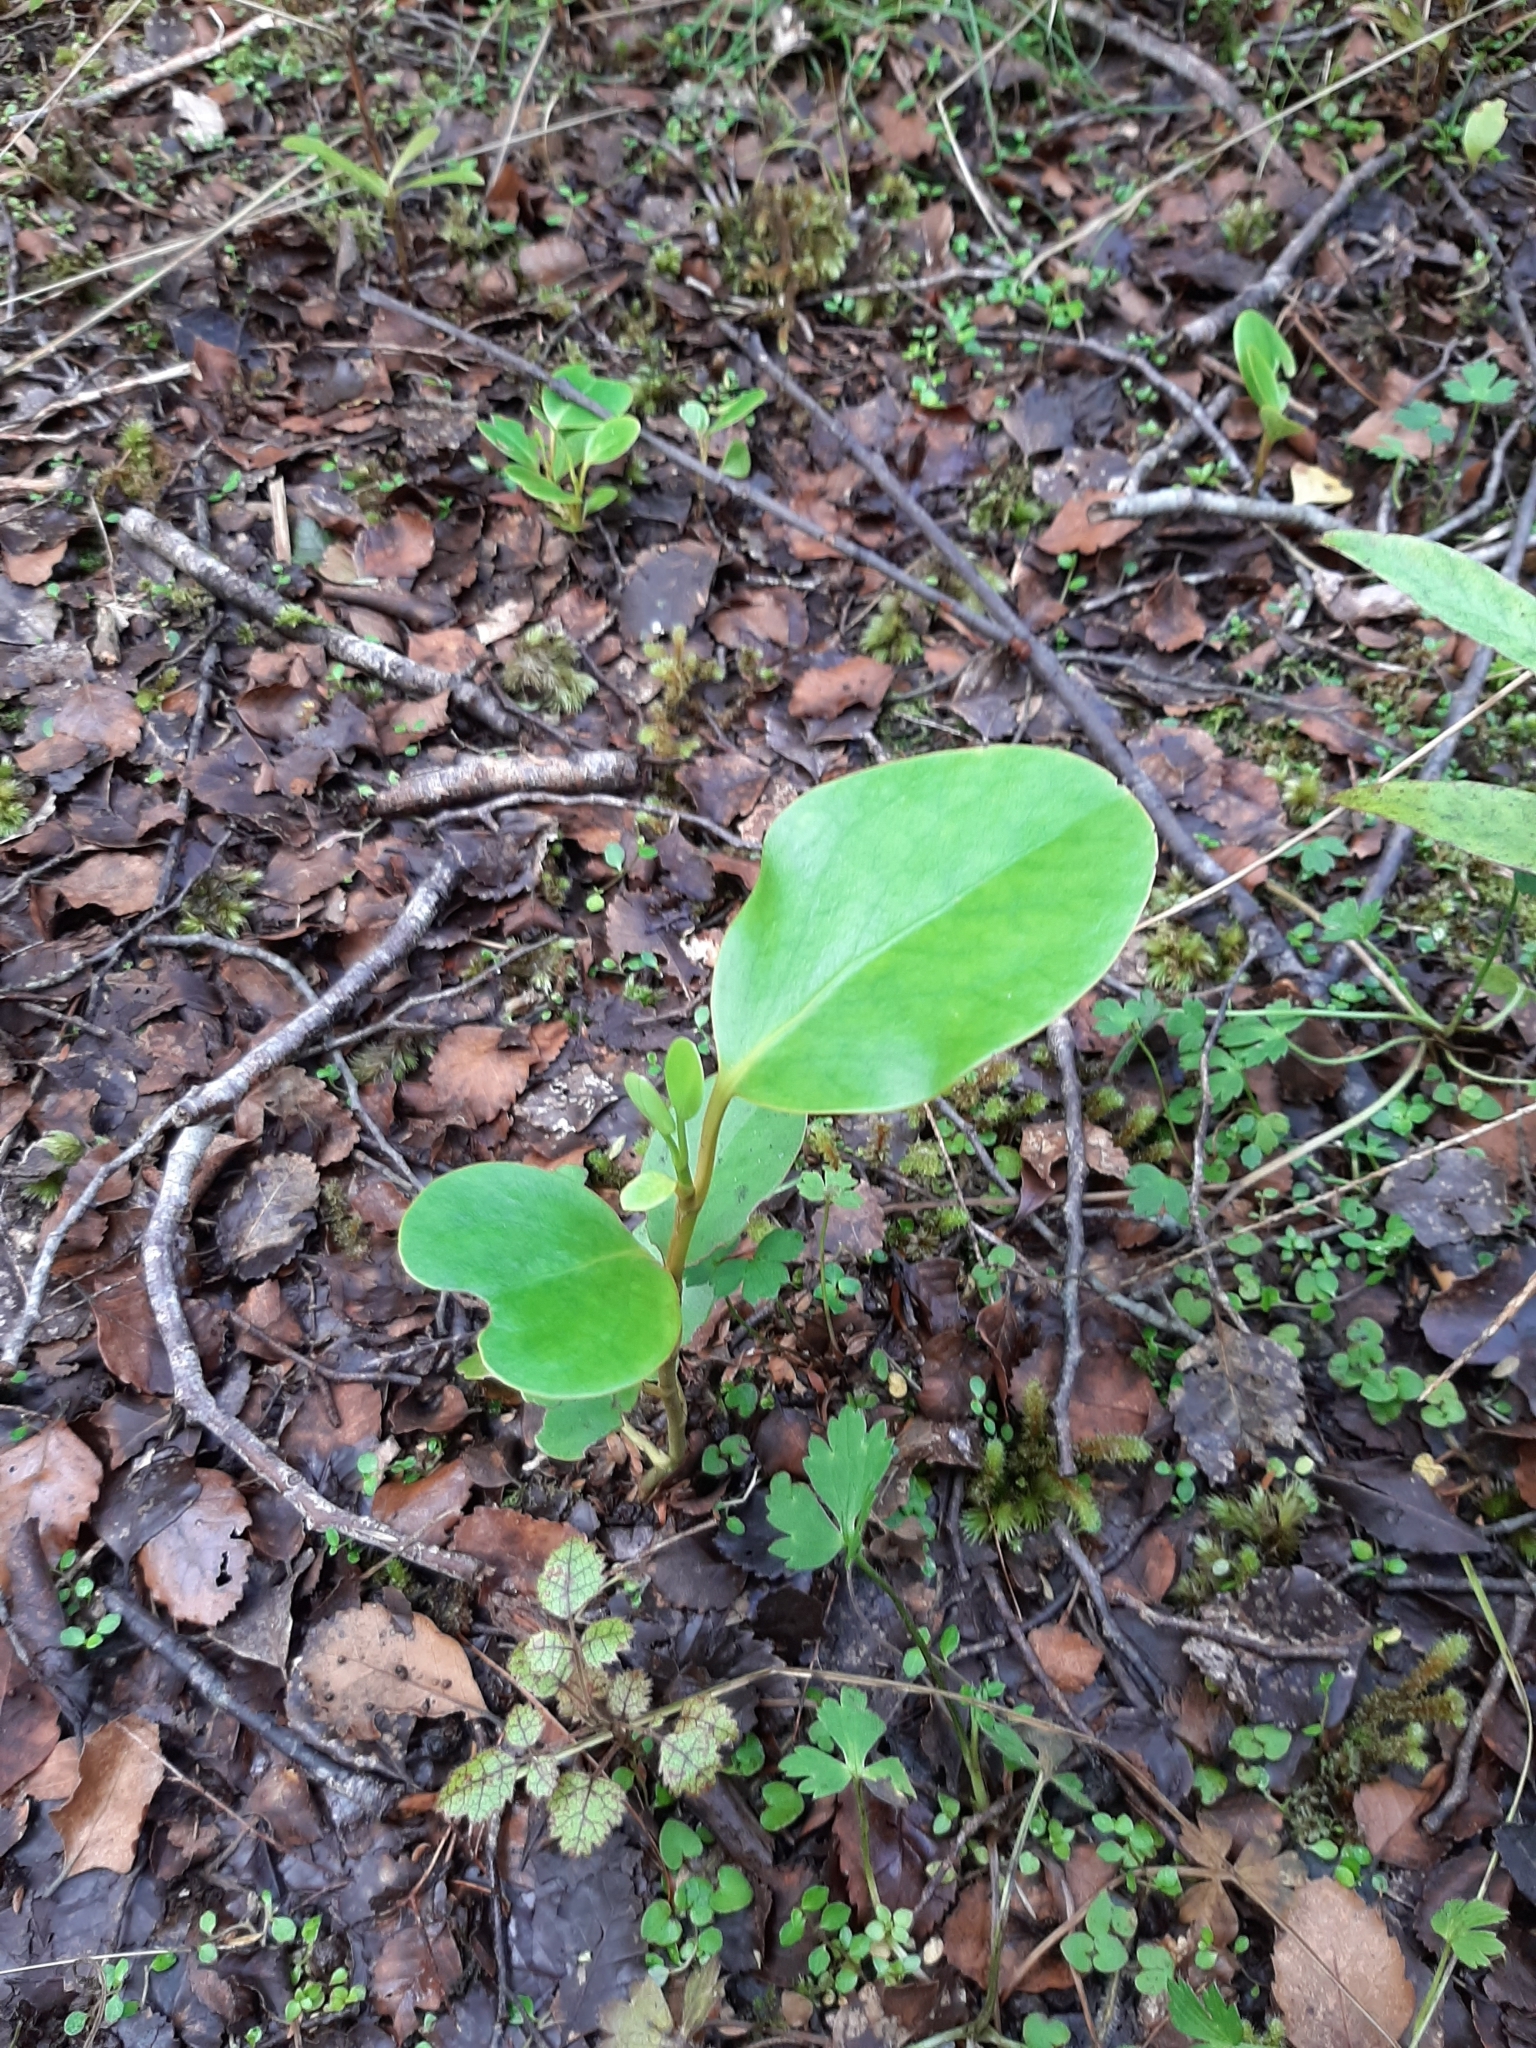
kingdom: Plantae
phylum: Tracheophyta
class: Magnoliopsida
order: Apiales
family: Griseliniaceae
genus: Griselinia
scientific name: Griselinia littoralis
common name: New zealand broadleaf
